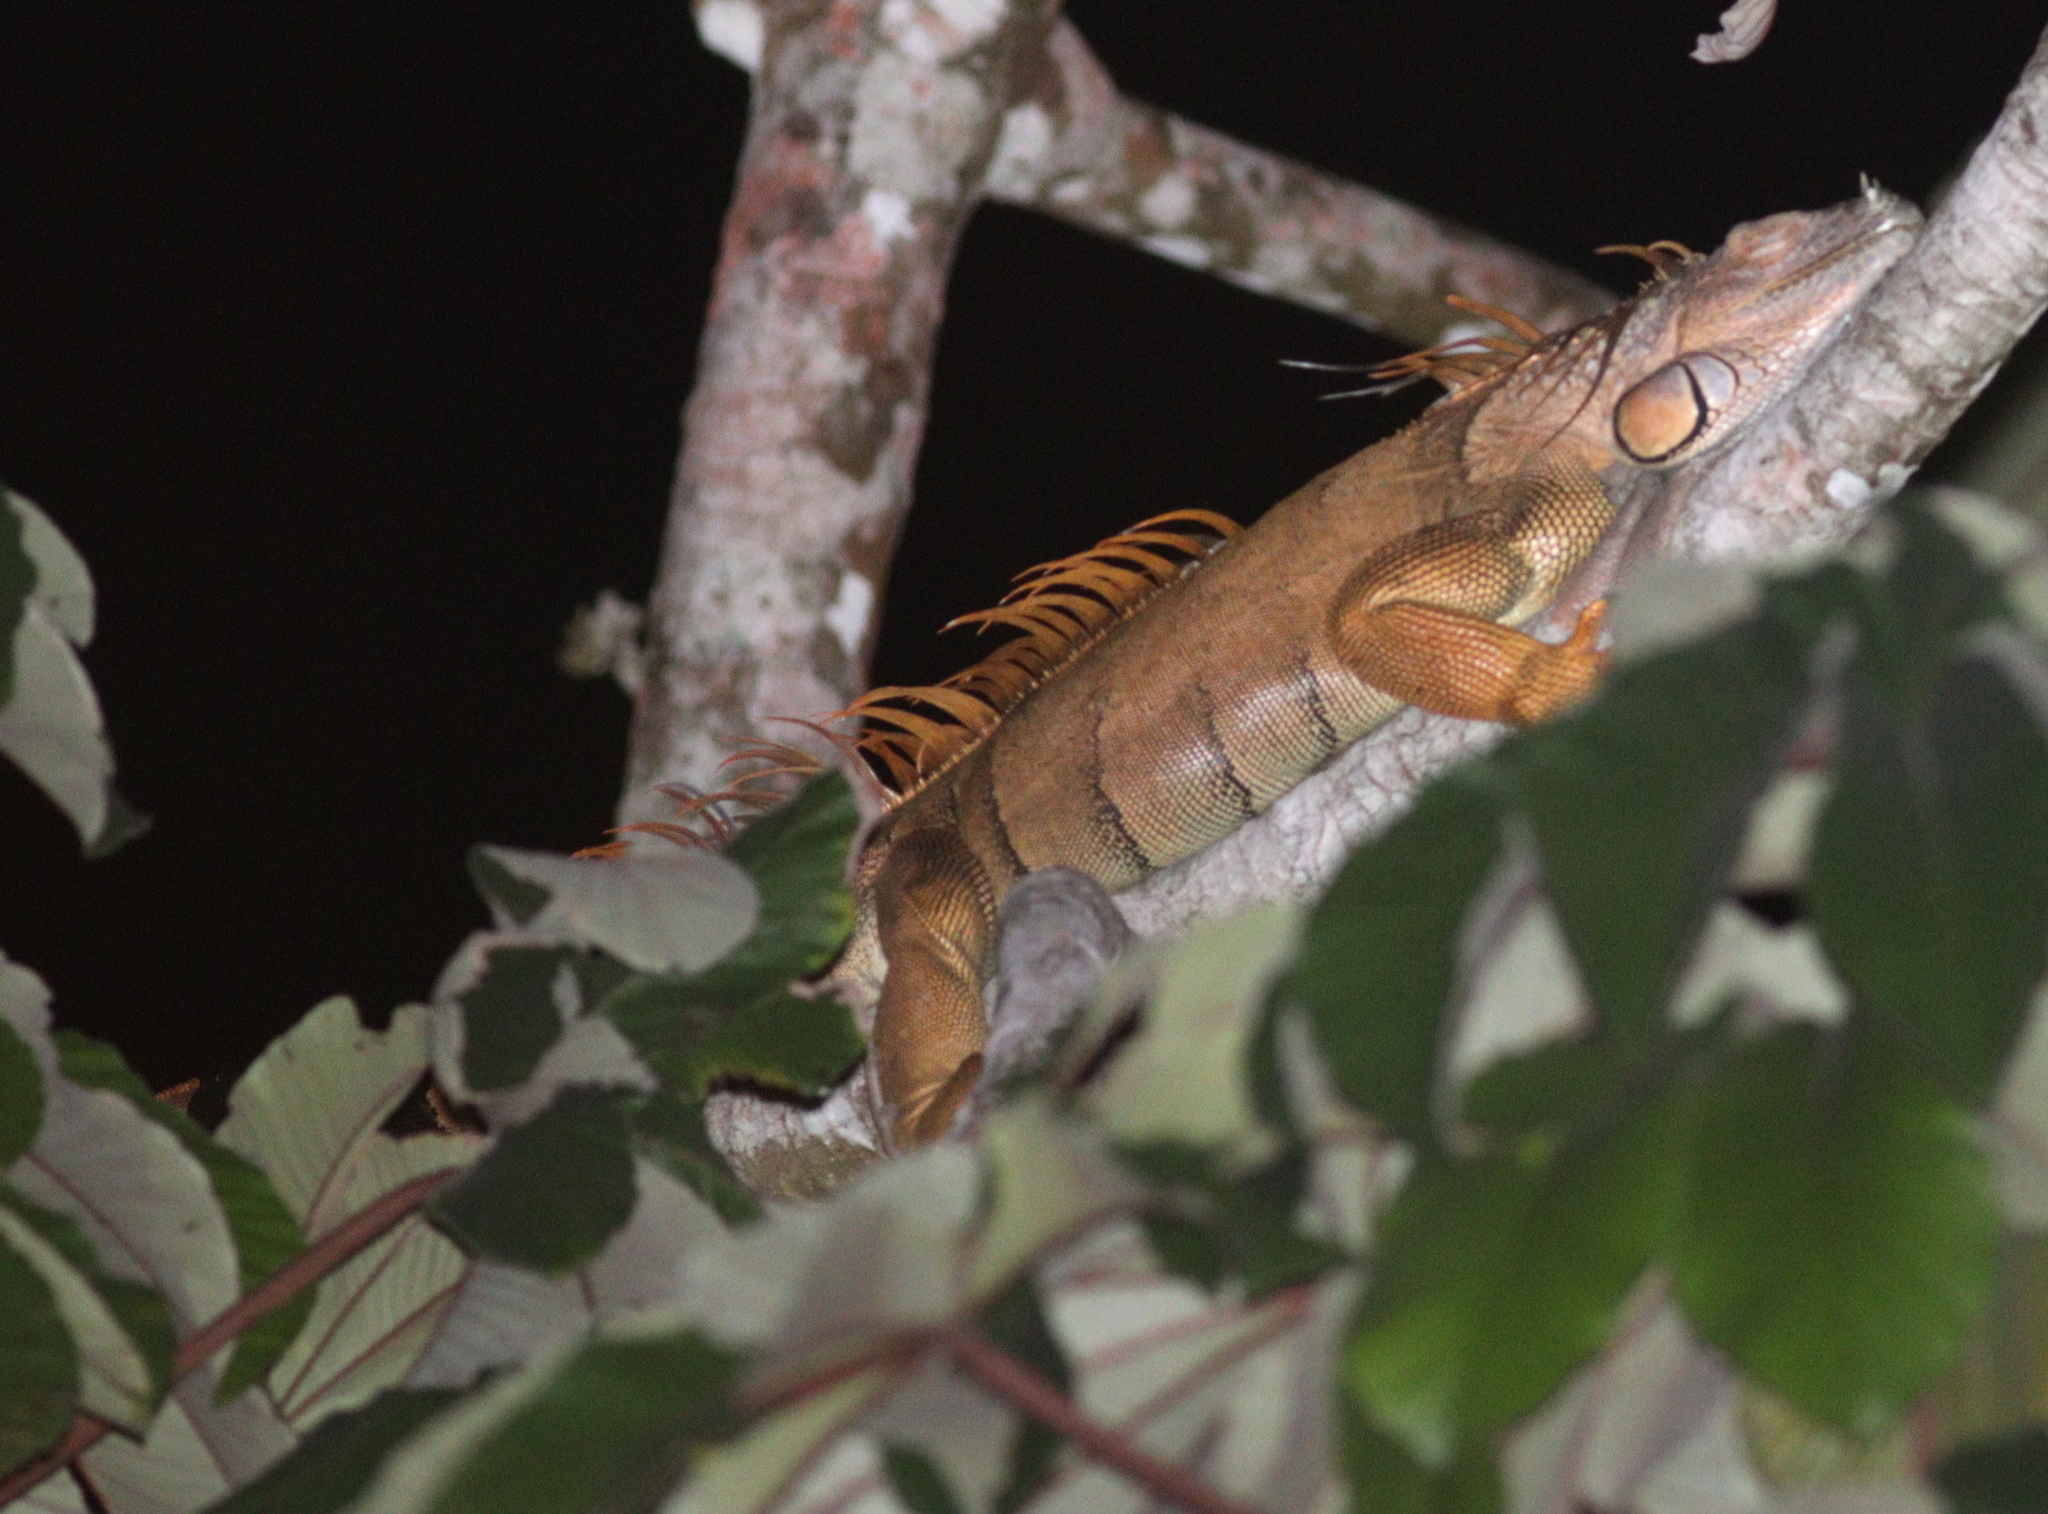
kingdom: Animalia
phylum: Chordata
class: Squamata
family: Iguanidae
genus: Iguana
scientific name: Iguana iguana
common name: Green iguana
